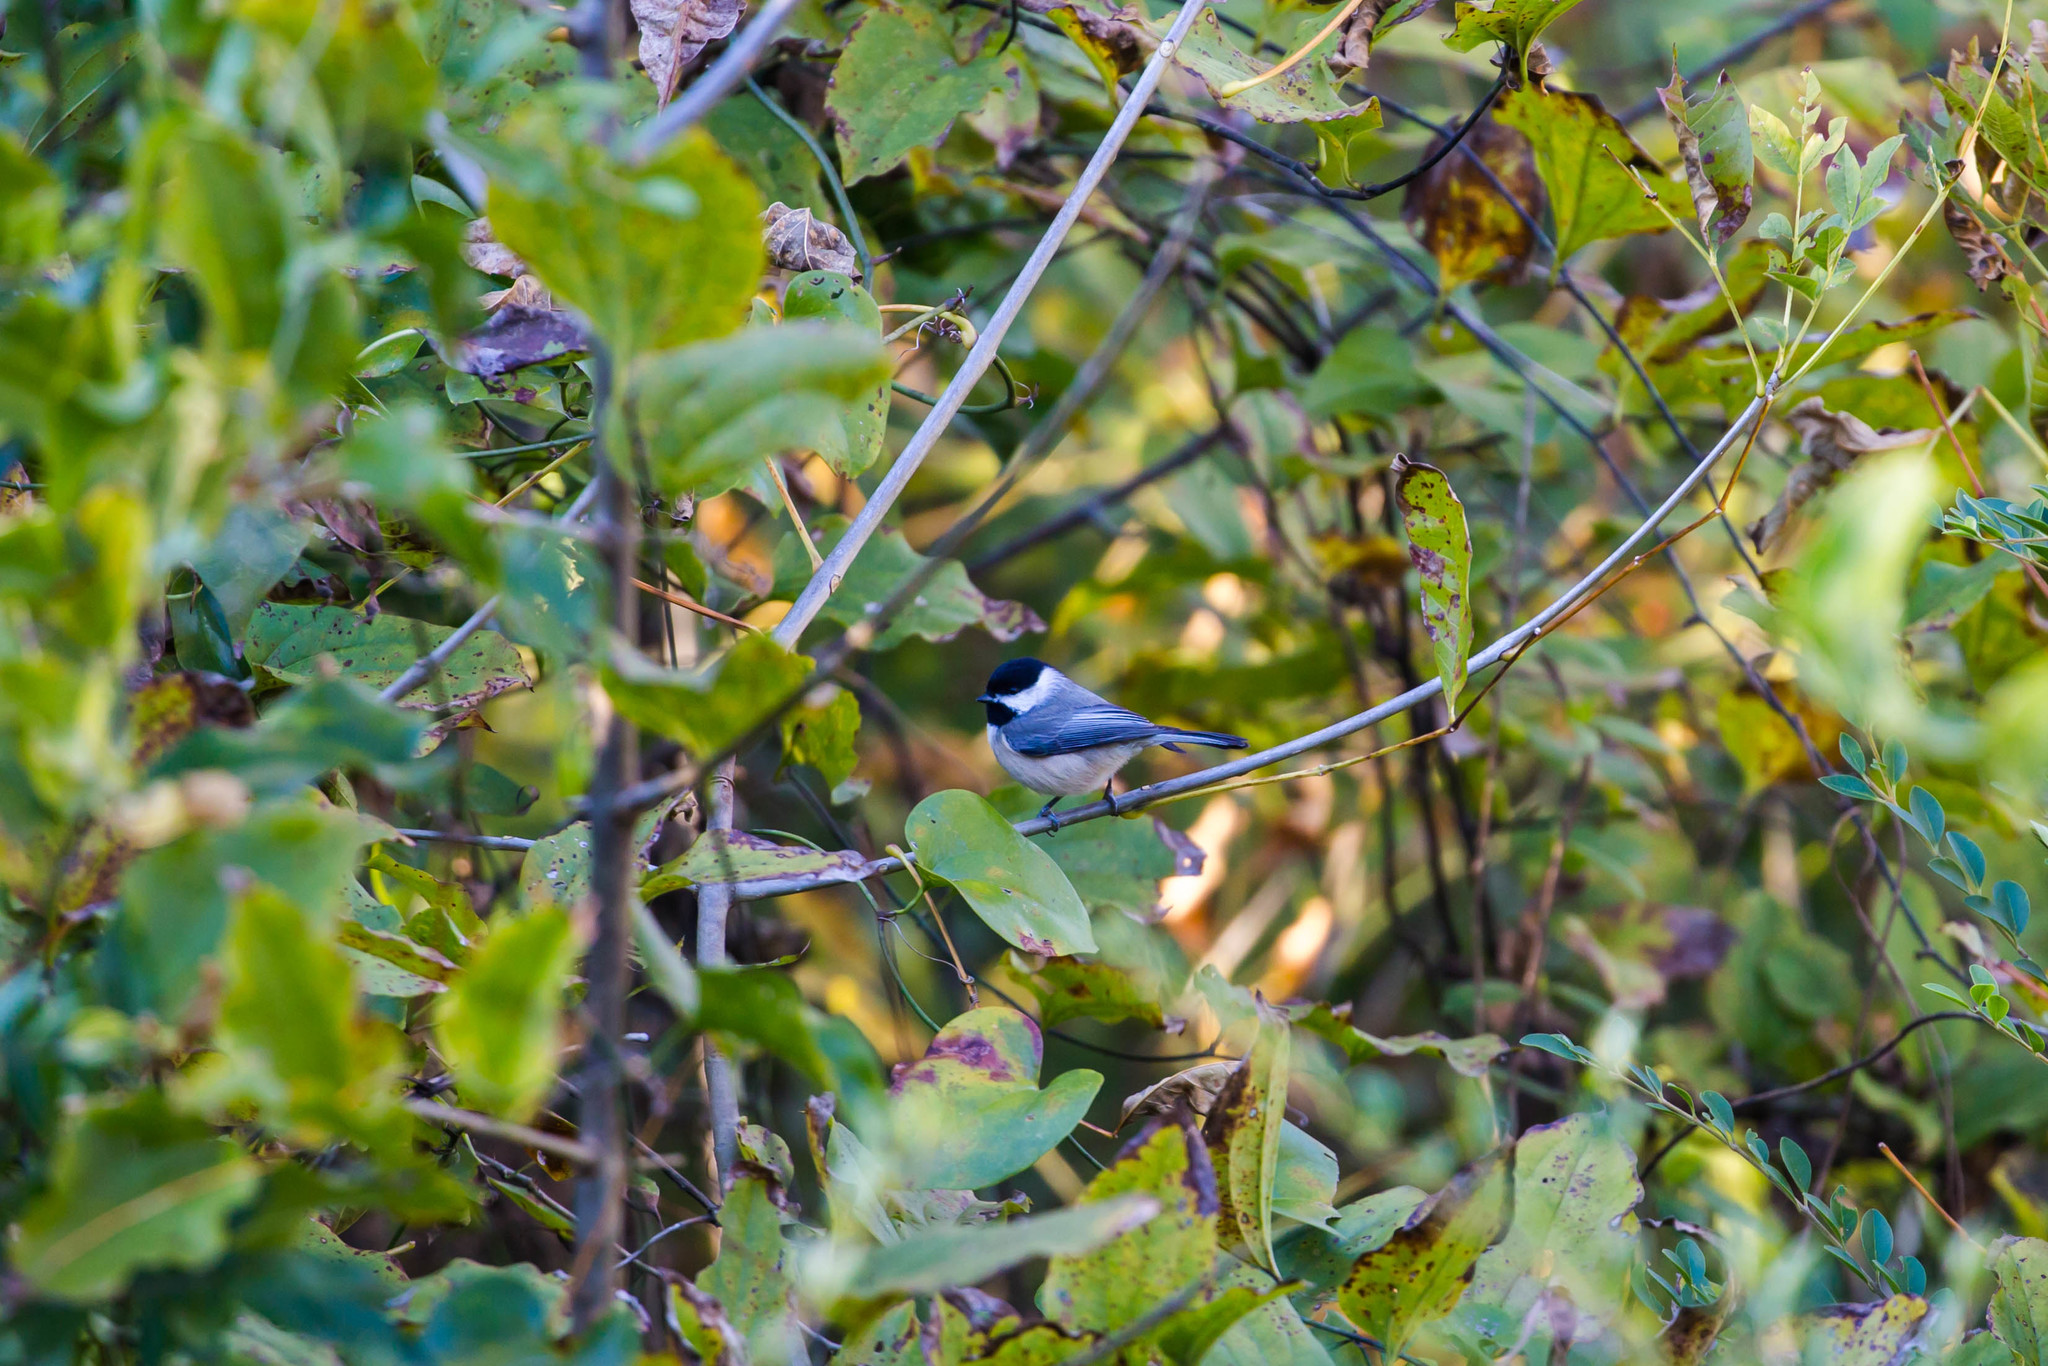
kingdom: Animalia
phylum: Chordata
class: Aves
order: Passeriformes
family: Paridae
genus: Poecile
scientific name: Poecile carolinensis
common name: Carolina chickadee
